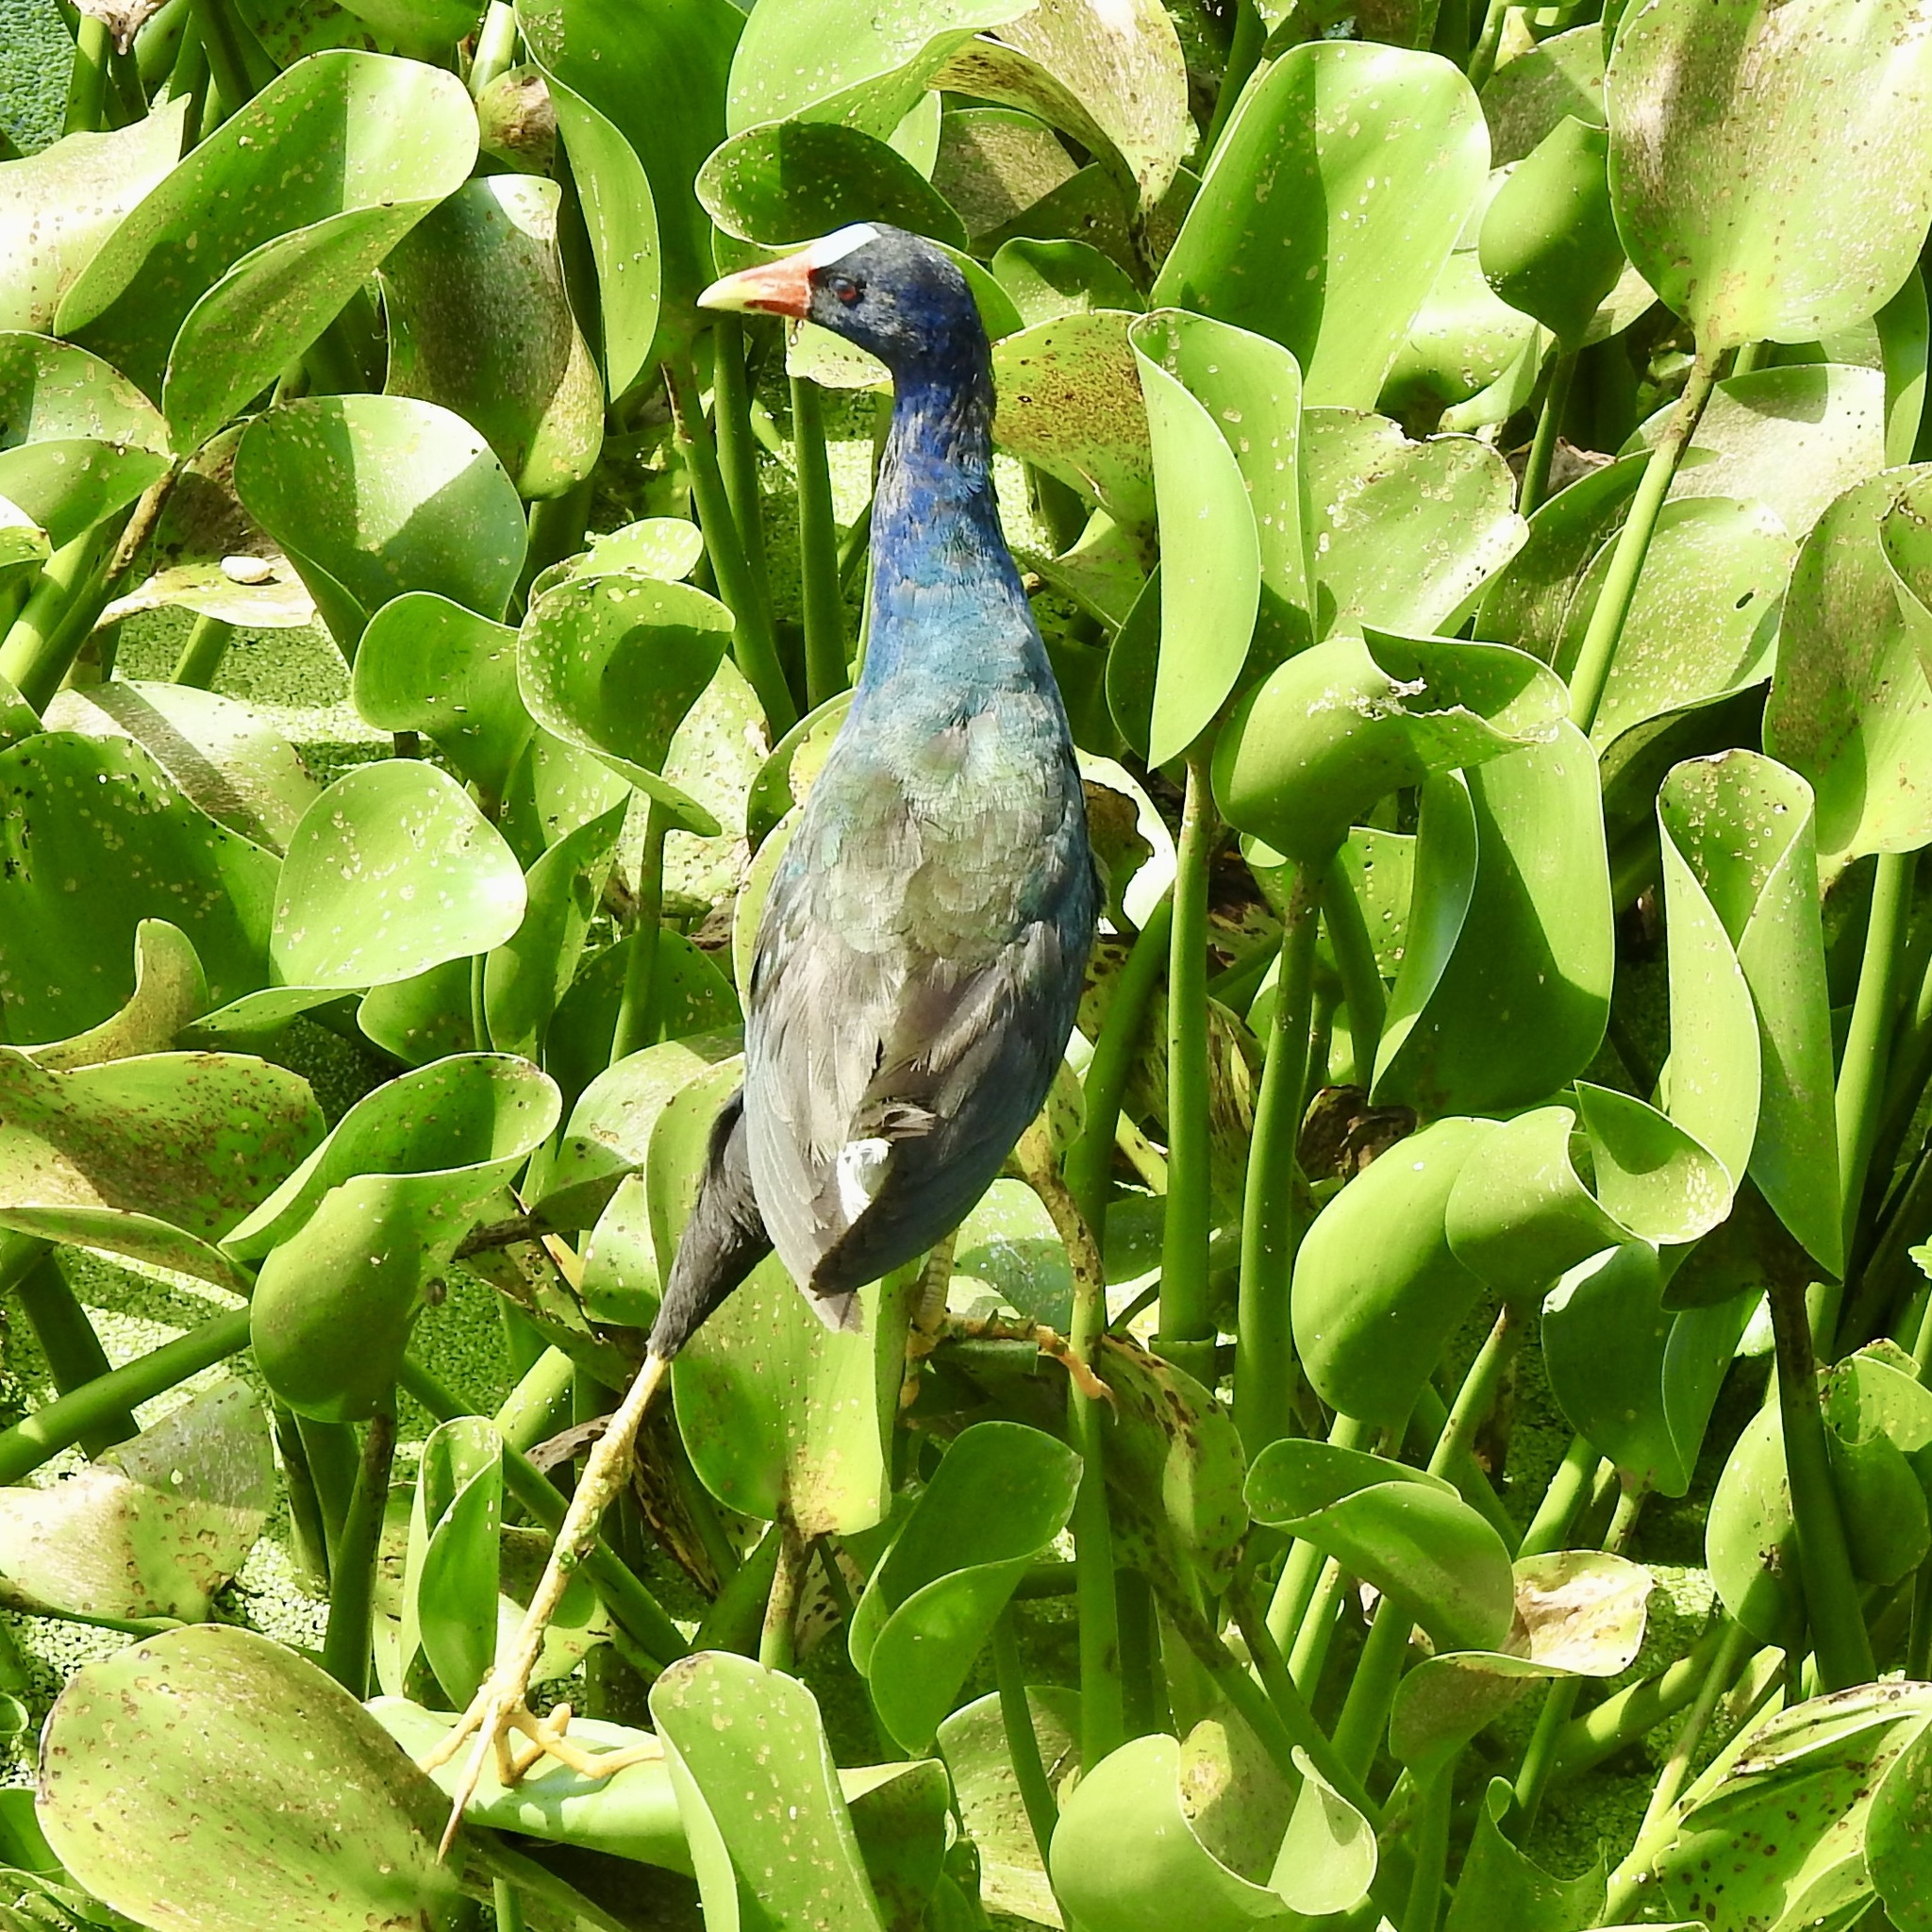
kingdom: Animalia
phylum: Chordata
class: Aves
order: Gruiformes
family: Rallidae
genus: Porphyrio
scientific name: Porphyrio martinica
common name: Purple gallinule
